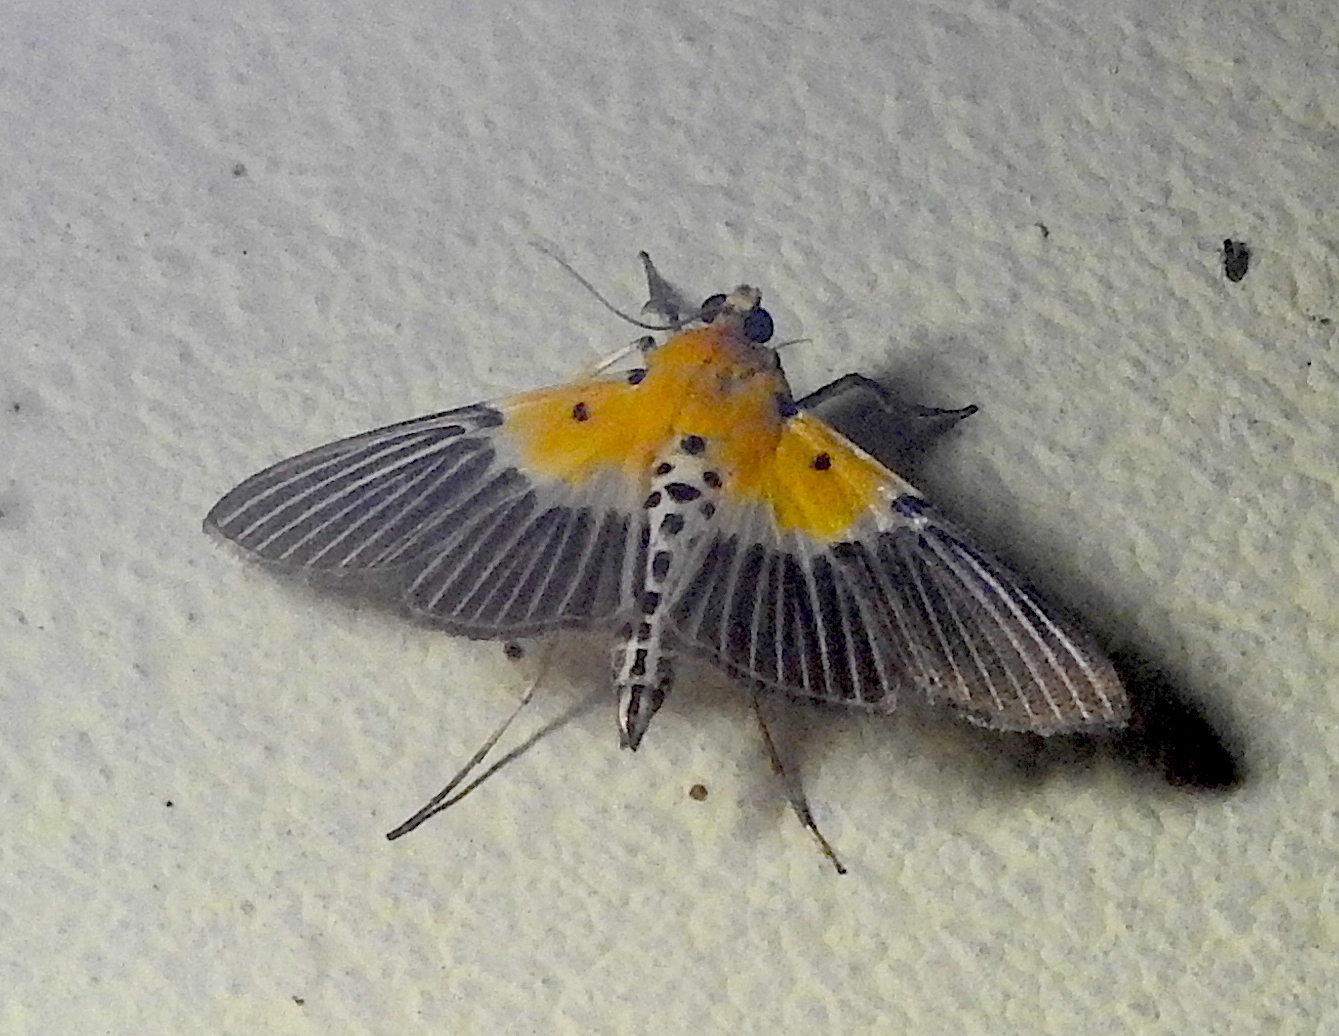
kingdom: Animalia
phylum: Arthropoda
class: Insecta
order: Lepidoptera
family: Crambidae
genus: Nevrina
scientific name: Nevrina procopia
